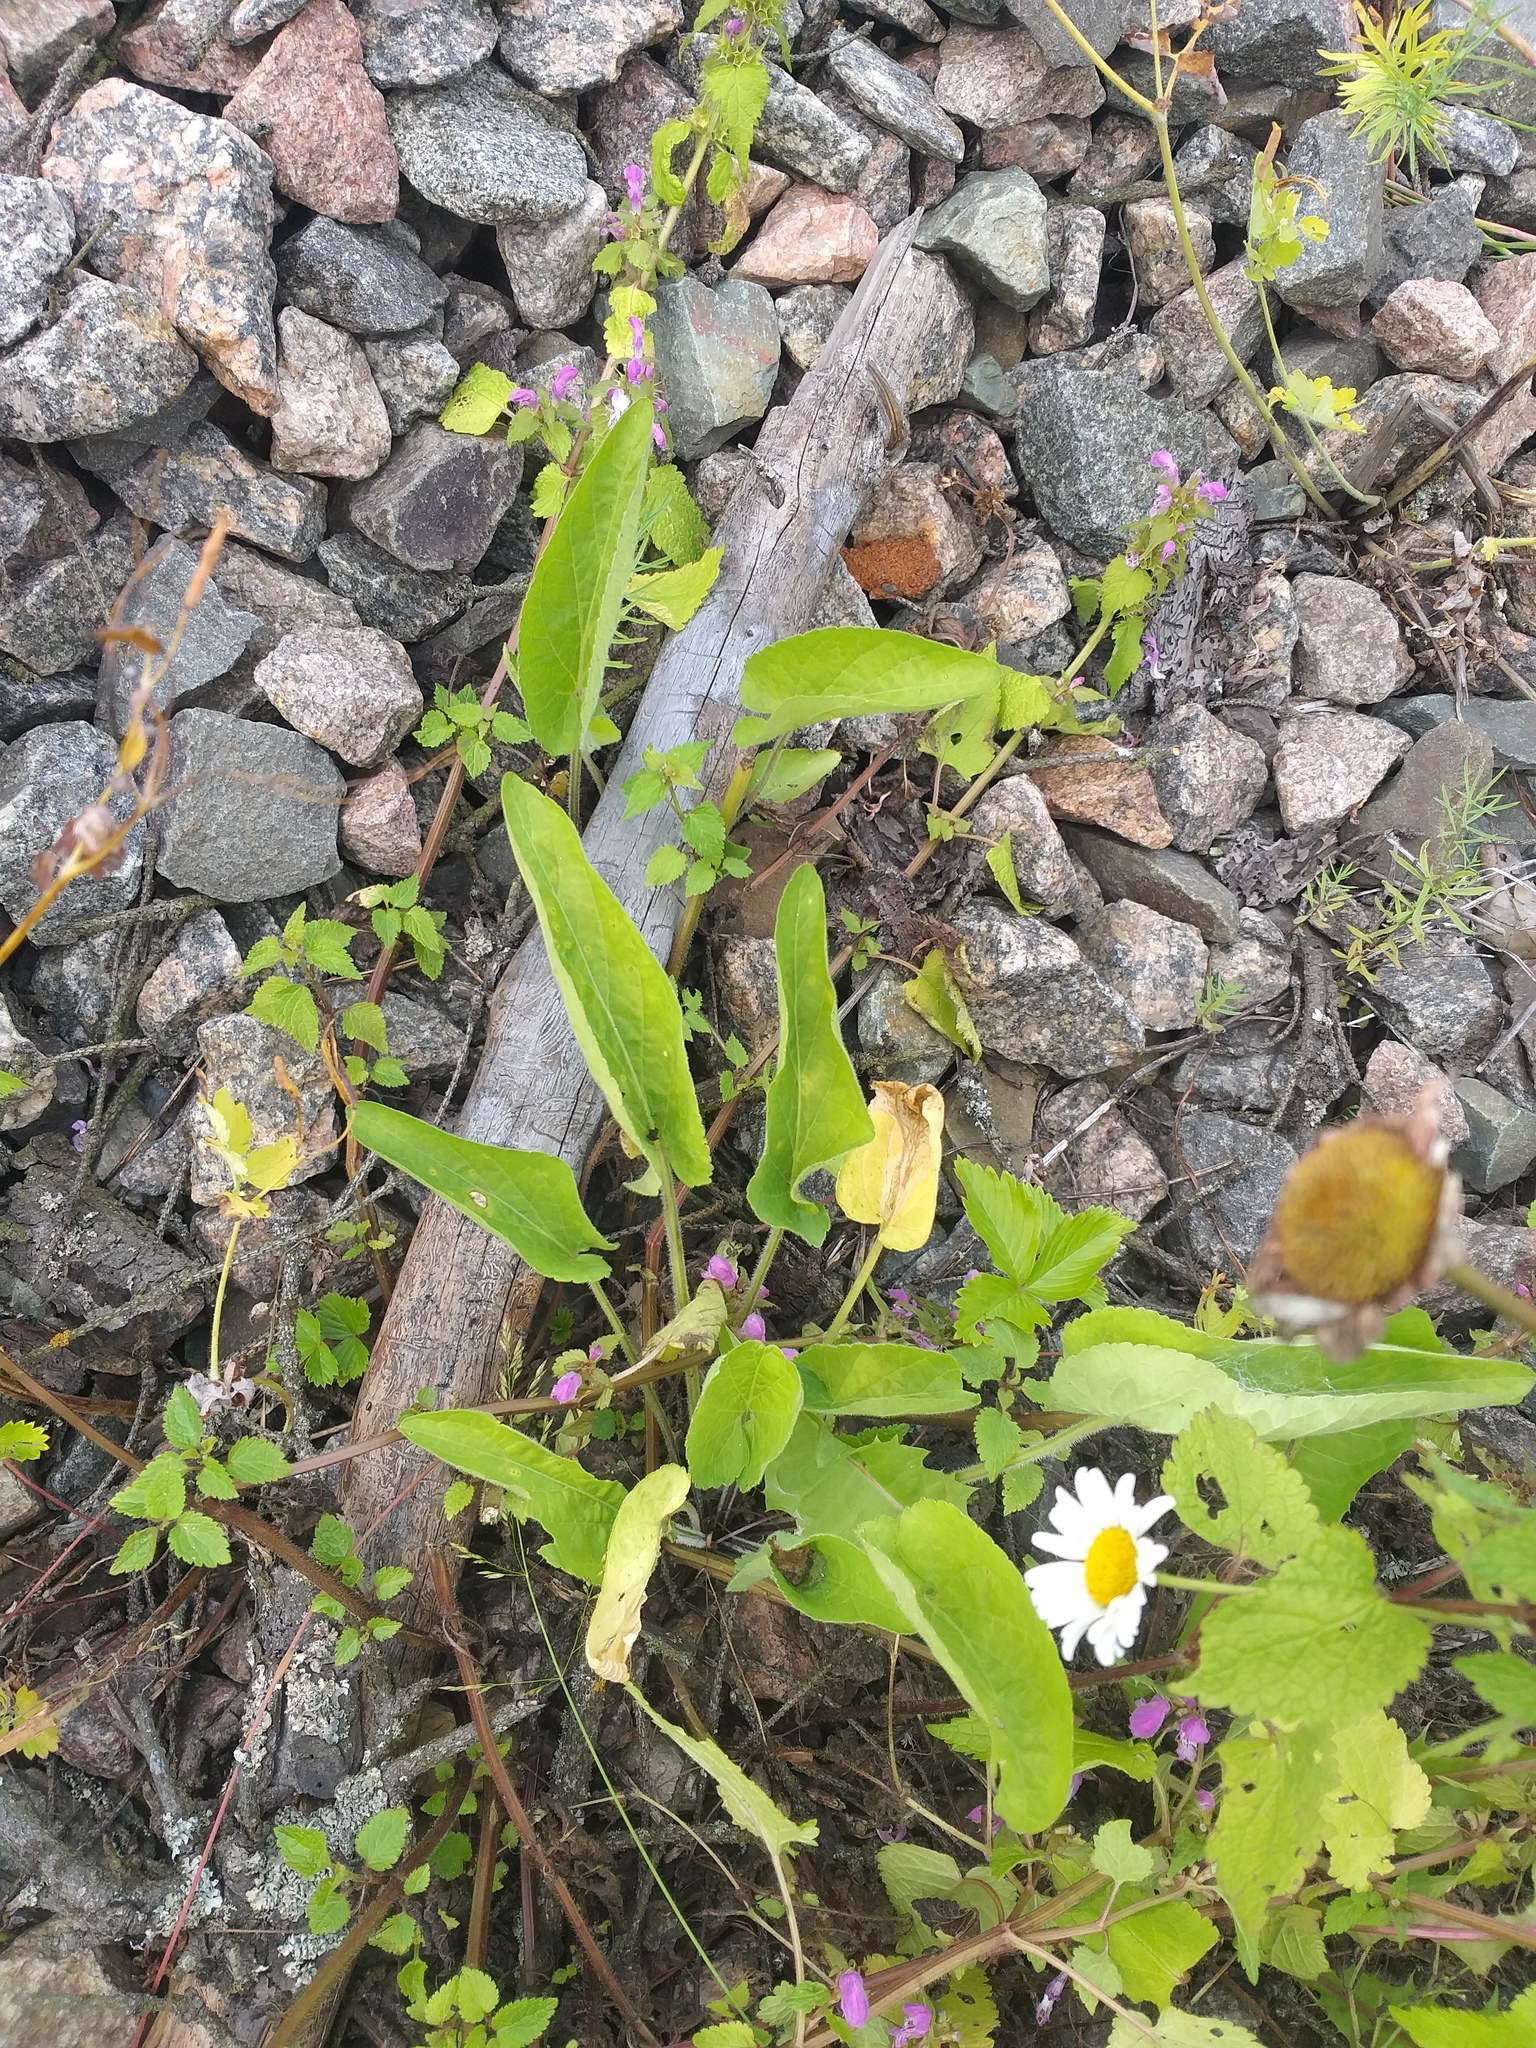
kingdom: Plantae
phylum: Tracheophyta
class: Magnoliopsida
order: Lamiales
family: Lamiaceae
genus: Lamium
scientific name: Lamium maculatum
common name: Spotted dead-nettle
